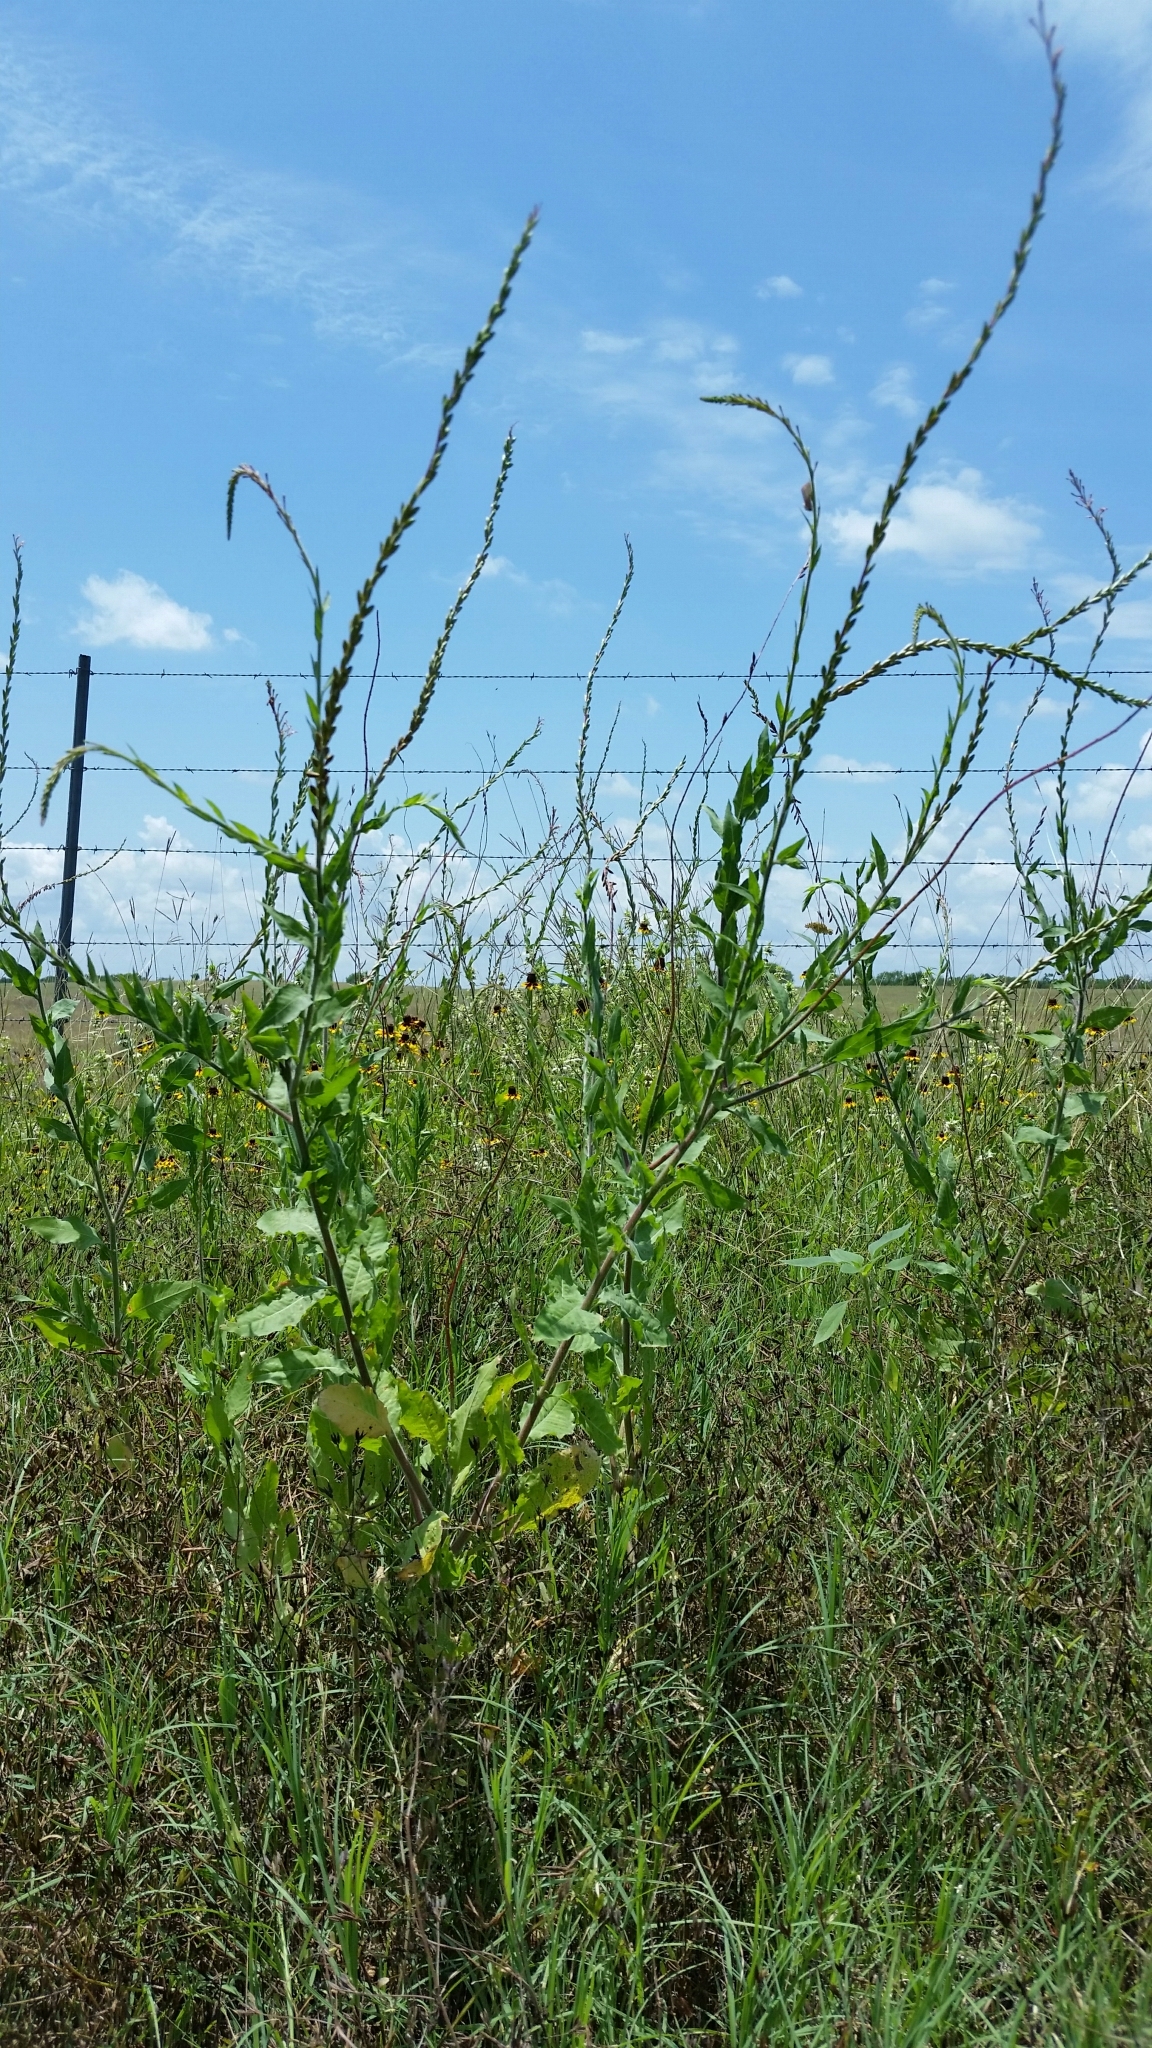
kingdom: Plantae
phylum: Tracheophyta
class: Magnoliopsida
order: Myrtales
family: Onagraceae
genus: Oenothera
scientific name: Oenothera curtiflora
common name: Velvetweed
